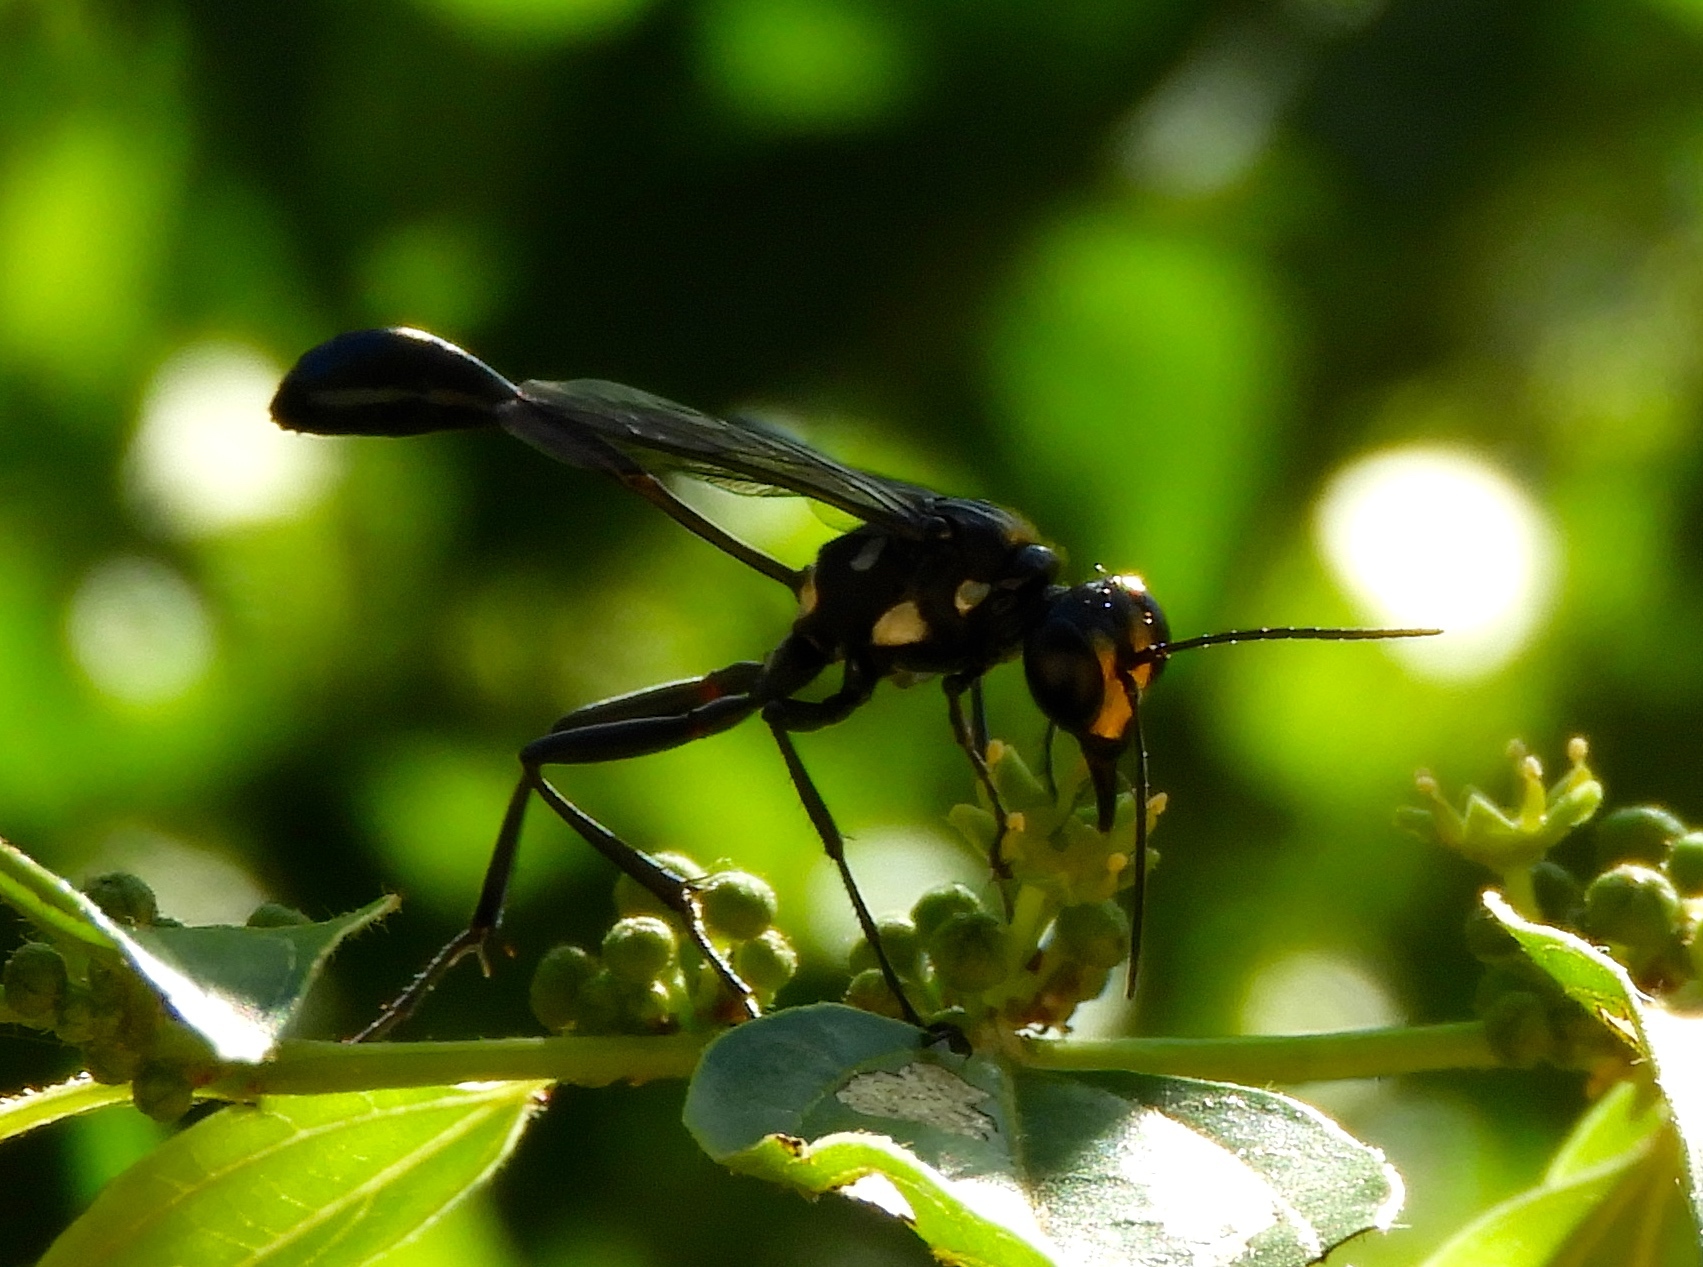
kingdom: Animalia
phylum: Arthropoda
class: Insecta
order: Hymenoptera
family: Sphecidae
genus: Eremnophila
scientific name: Eremnophila
